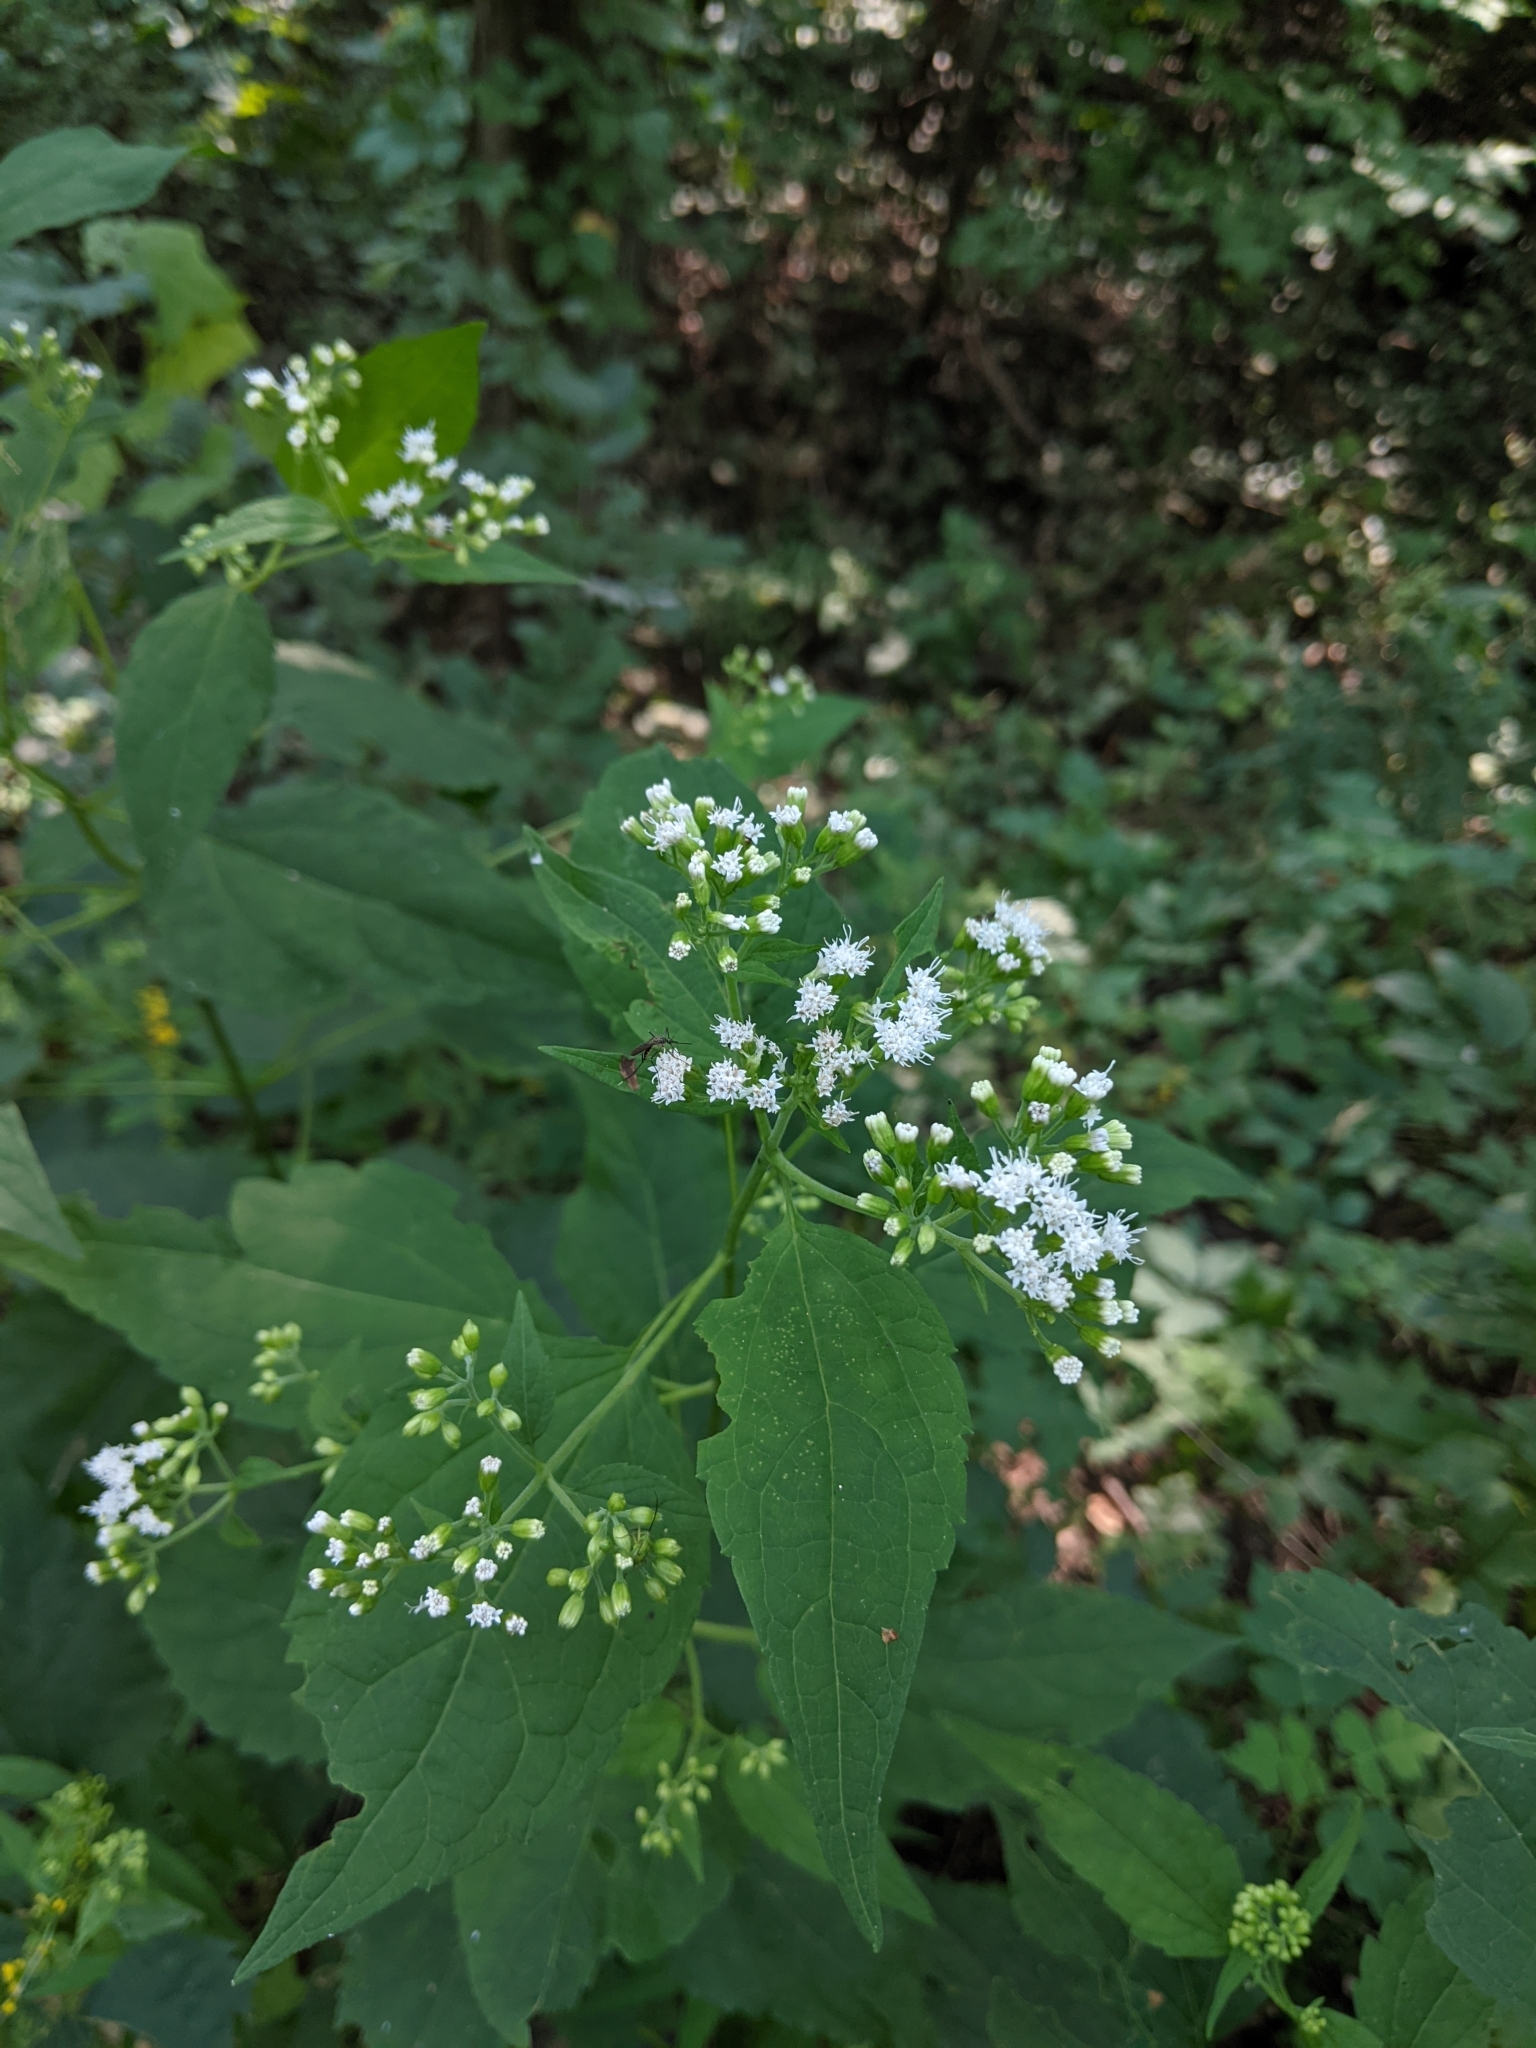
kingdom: Plantae
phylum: Tracheophyta
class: Magnoliopsida
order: Asterales
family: Asteraceae
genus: Ageratina
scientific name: Ageratina altissima
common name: White snakeroot
